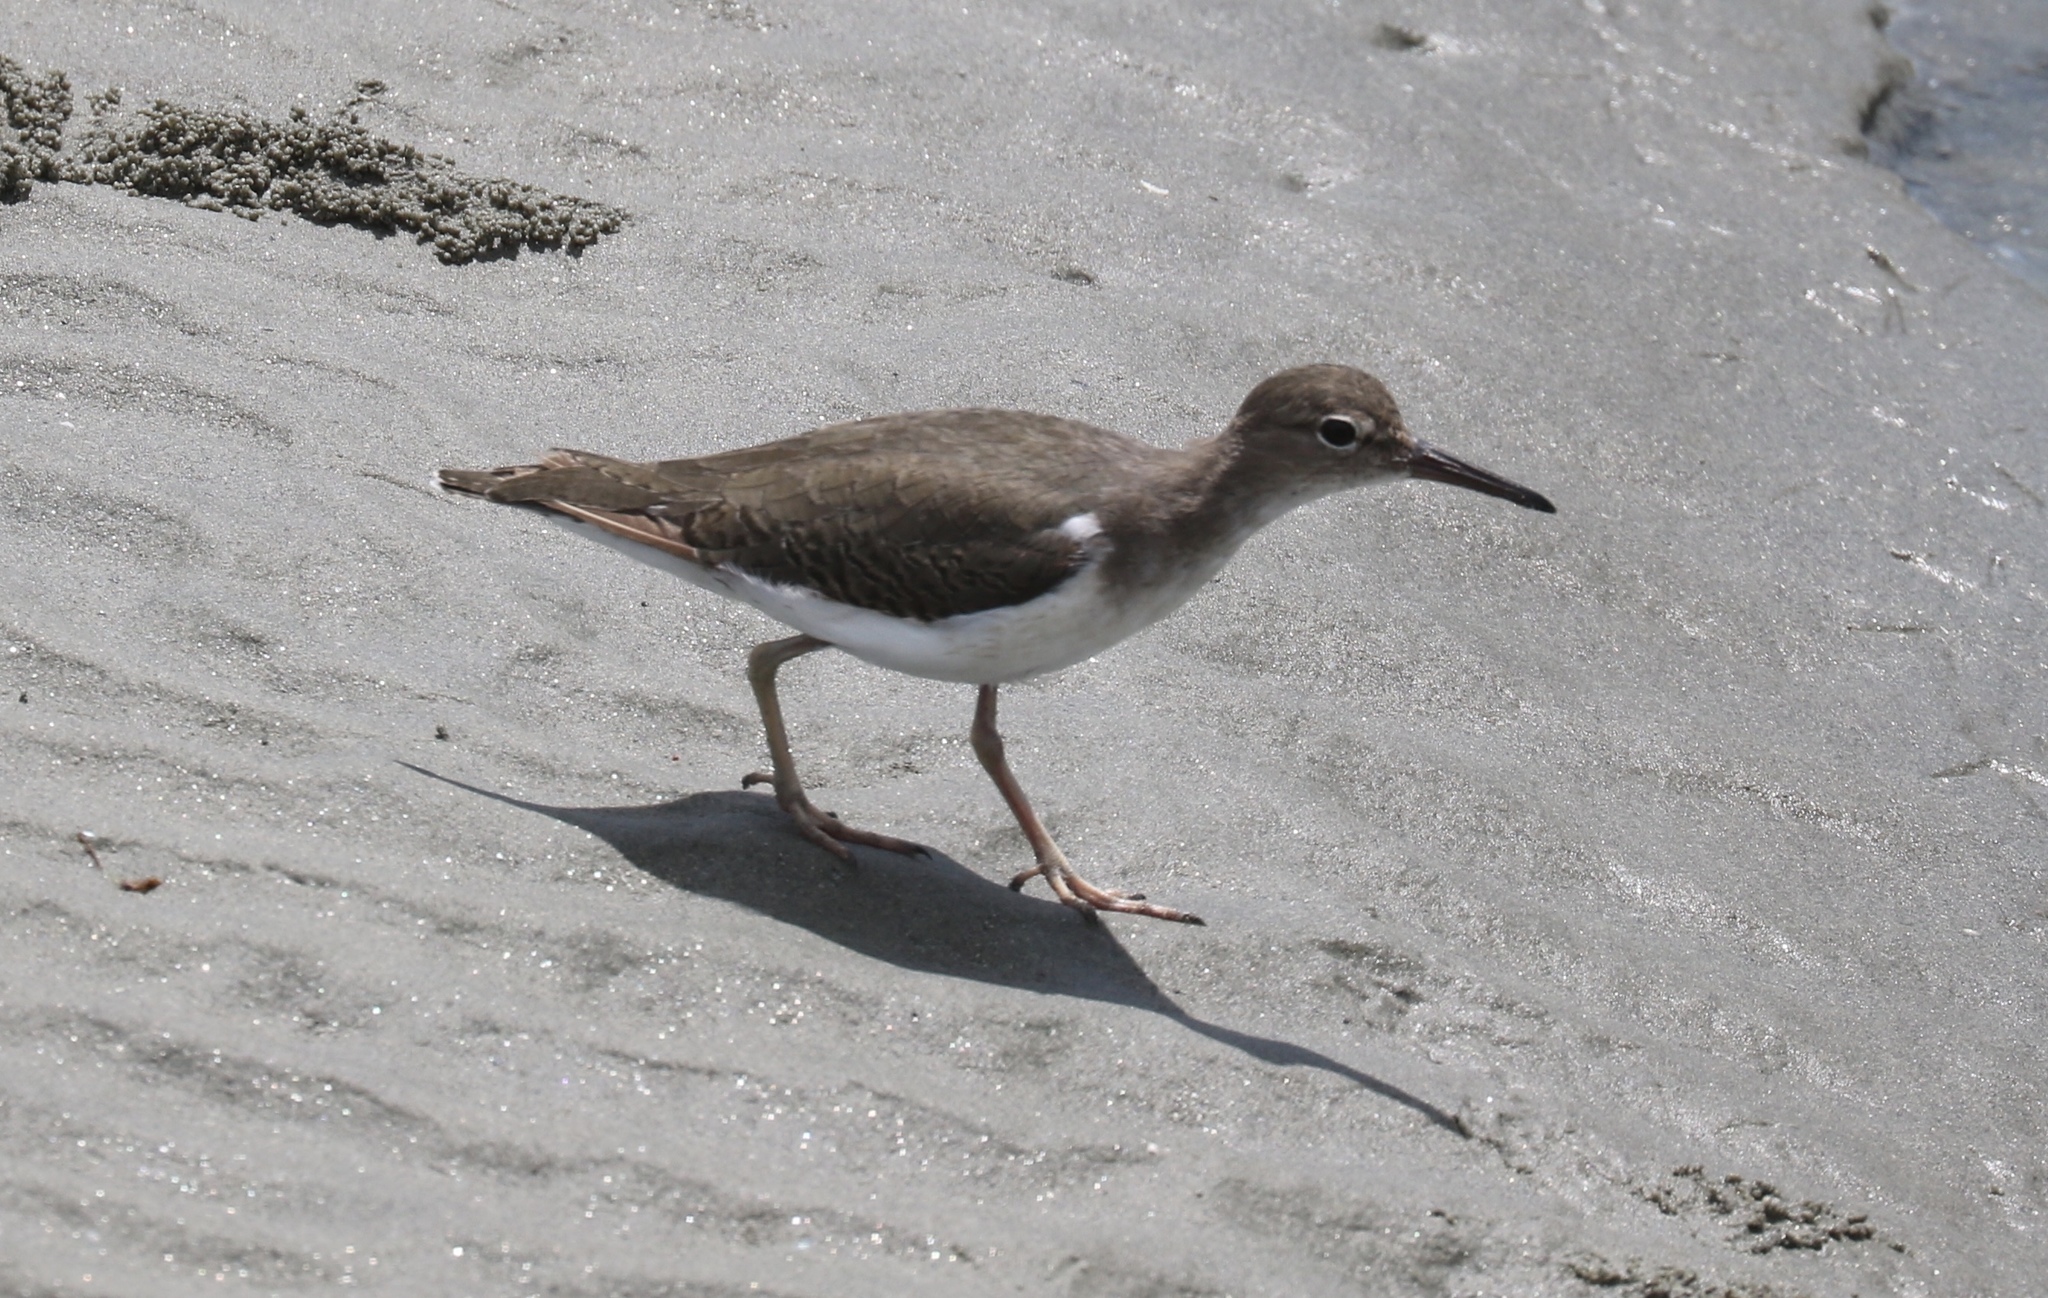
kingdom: Animalia
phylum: Chordata
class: Aves
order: Charadriiformes
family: Scolopacidae
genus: Actitis
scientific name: Actitis macularius
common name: Spotted sandpiper
